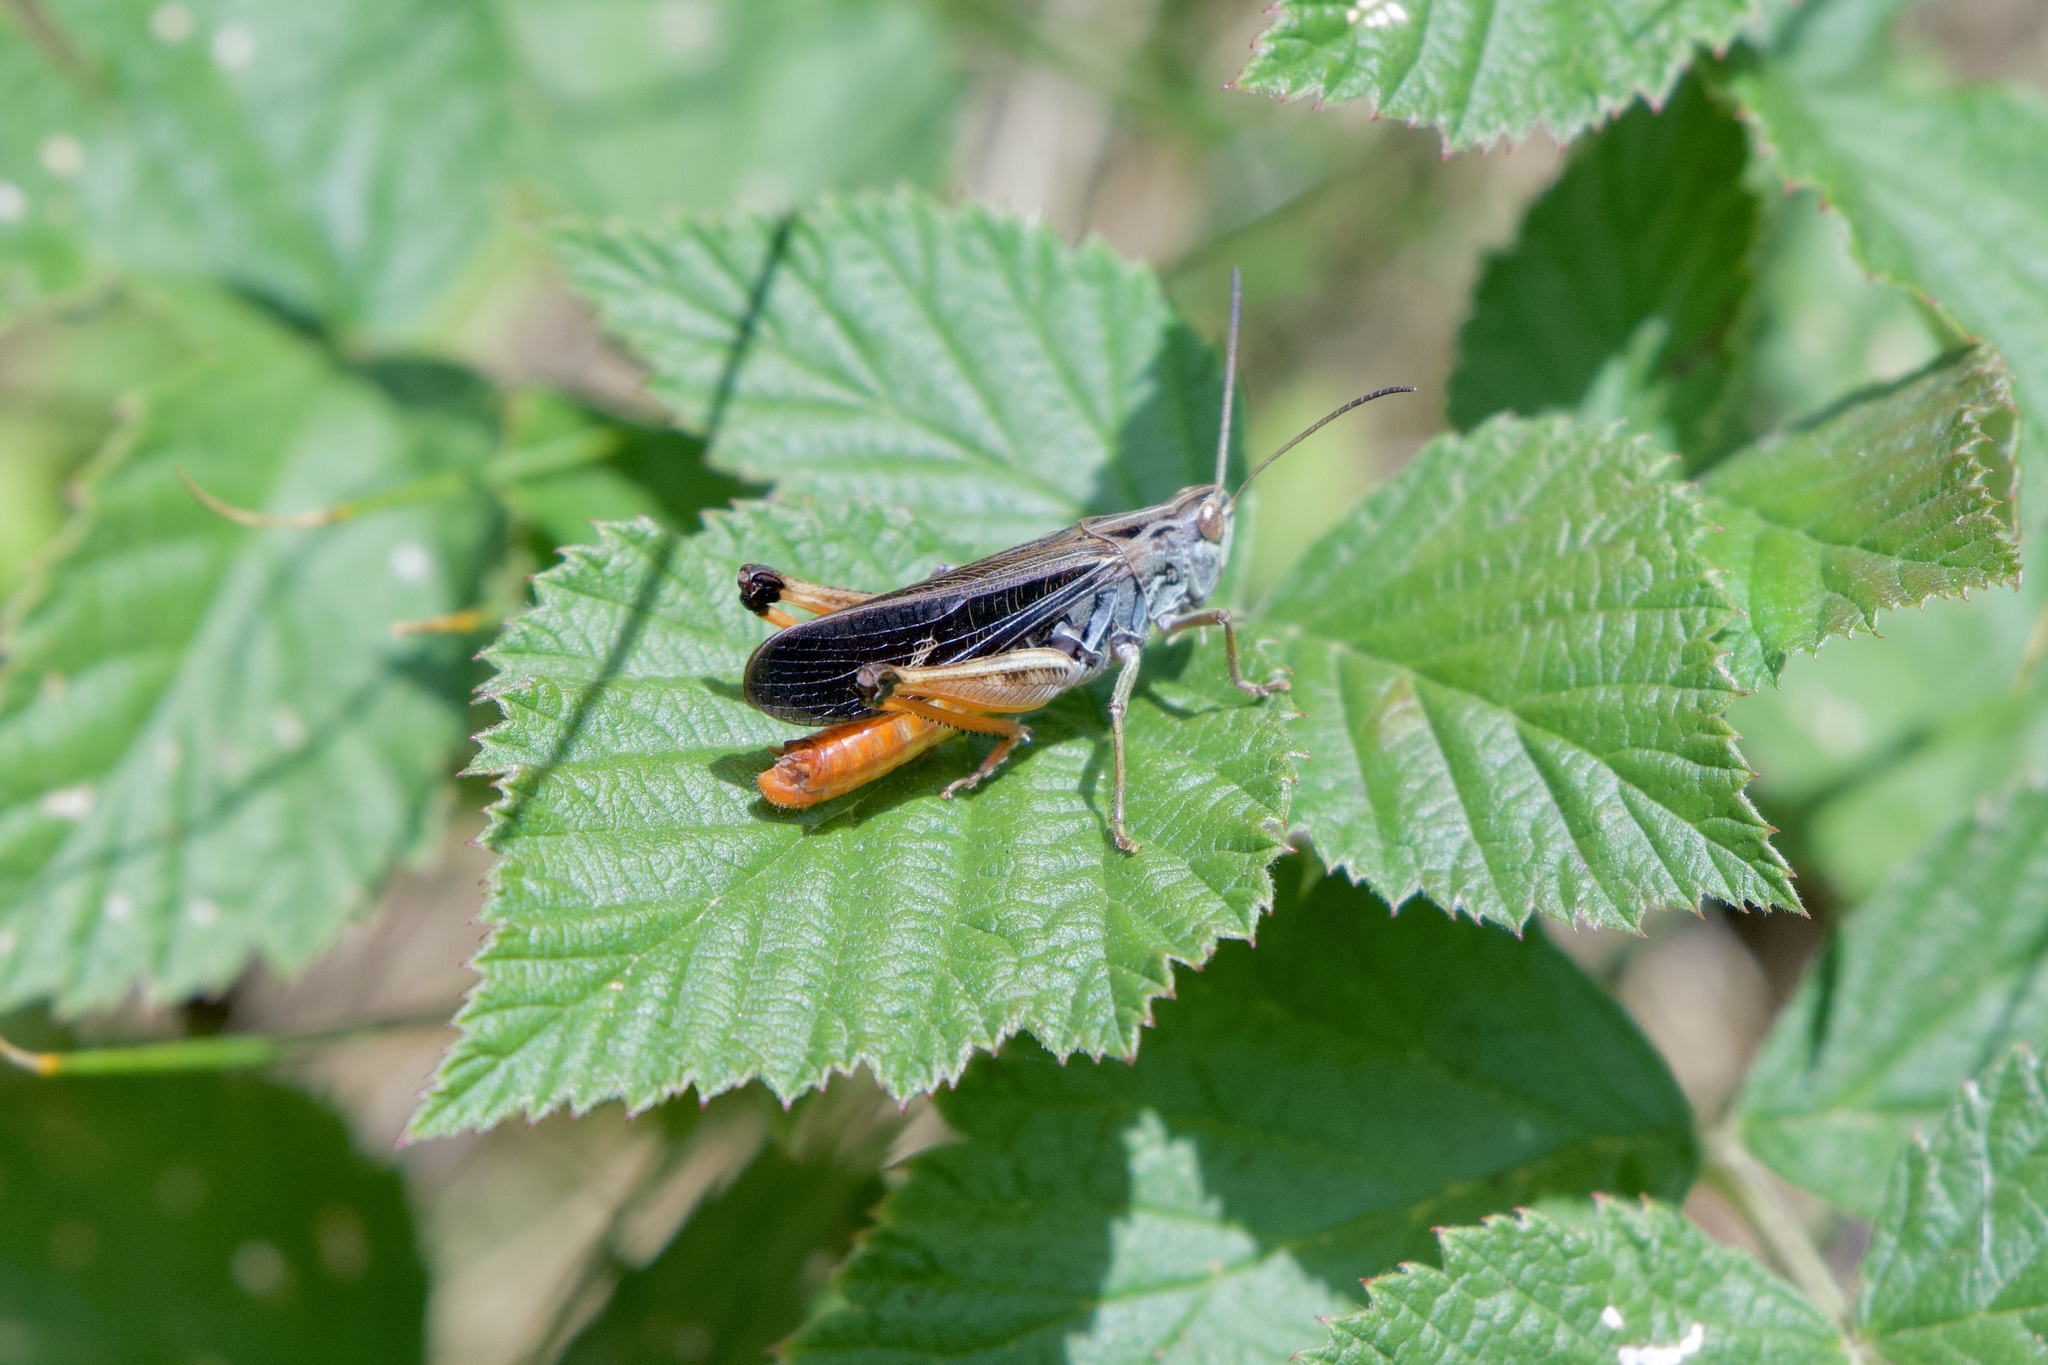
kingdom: Animalia
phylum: Arthropoda
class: Insecta
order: Orthoptera
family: Acrididae
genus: Stenobothrus
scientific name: Stenobothrus rubicundulus
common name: Wing-buzzing grasshopper
